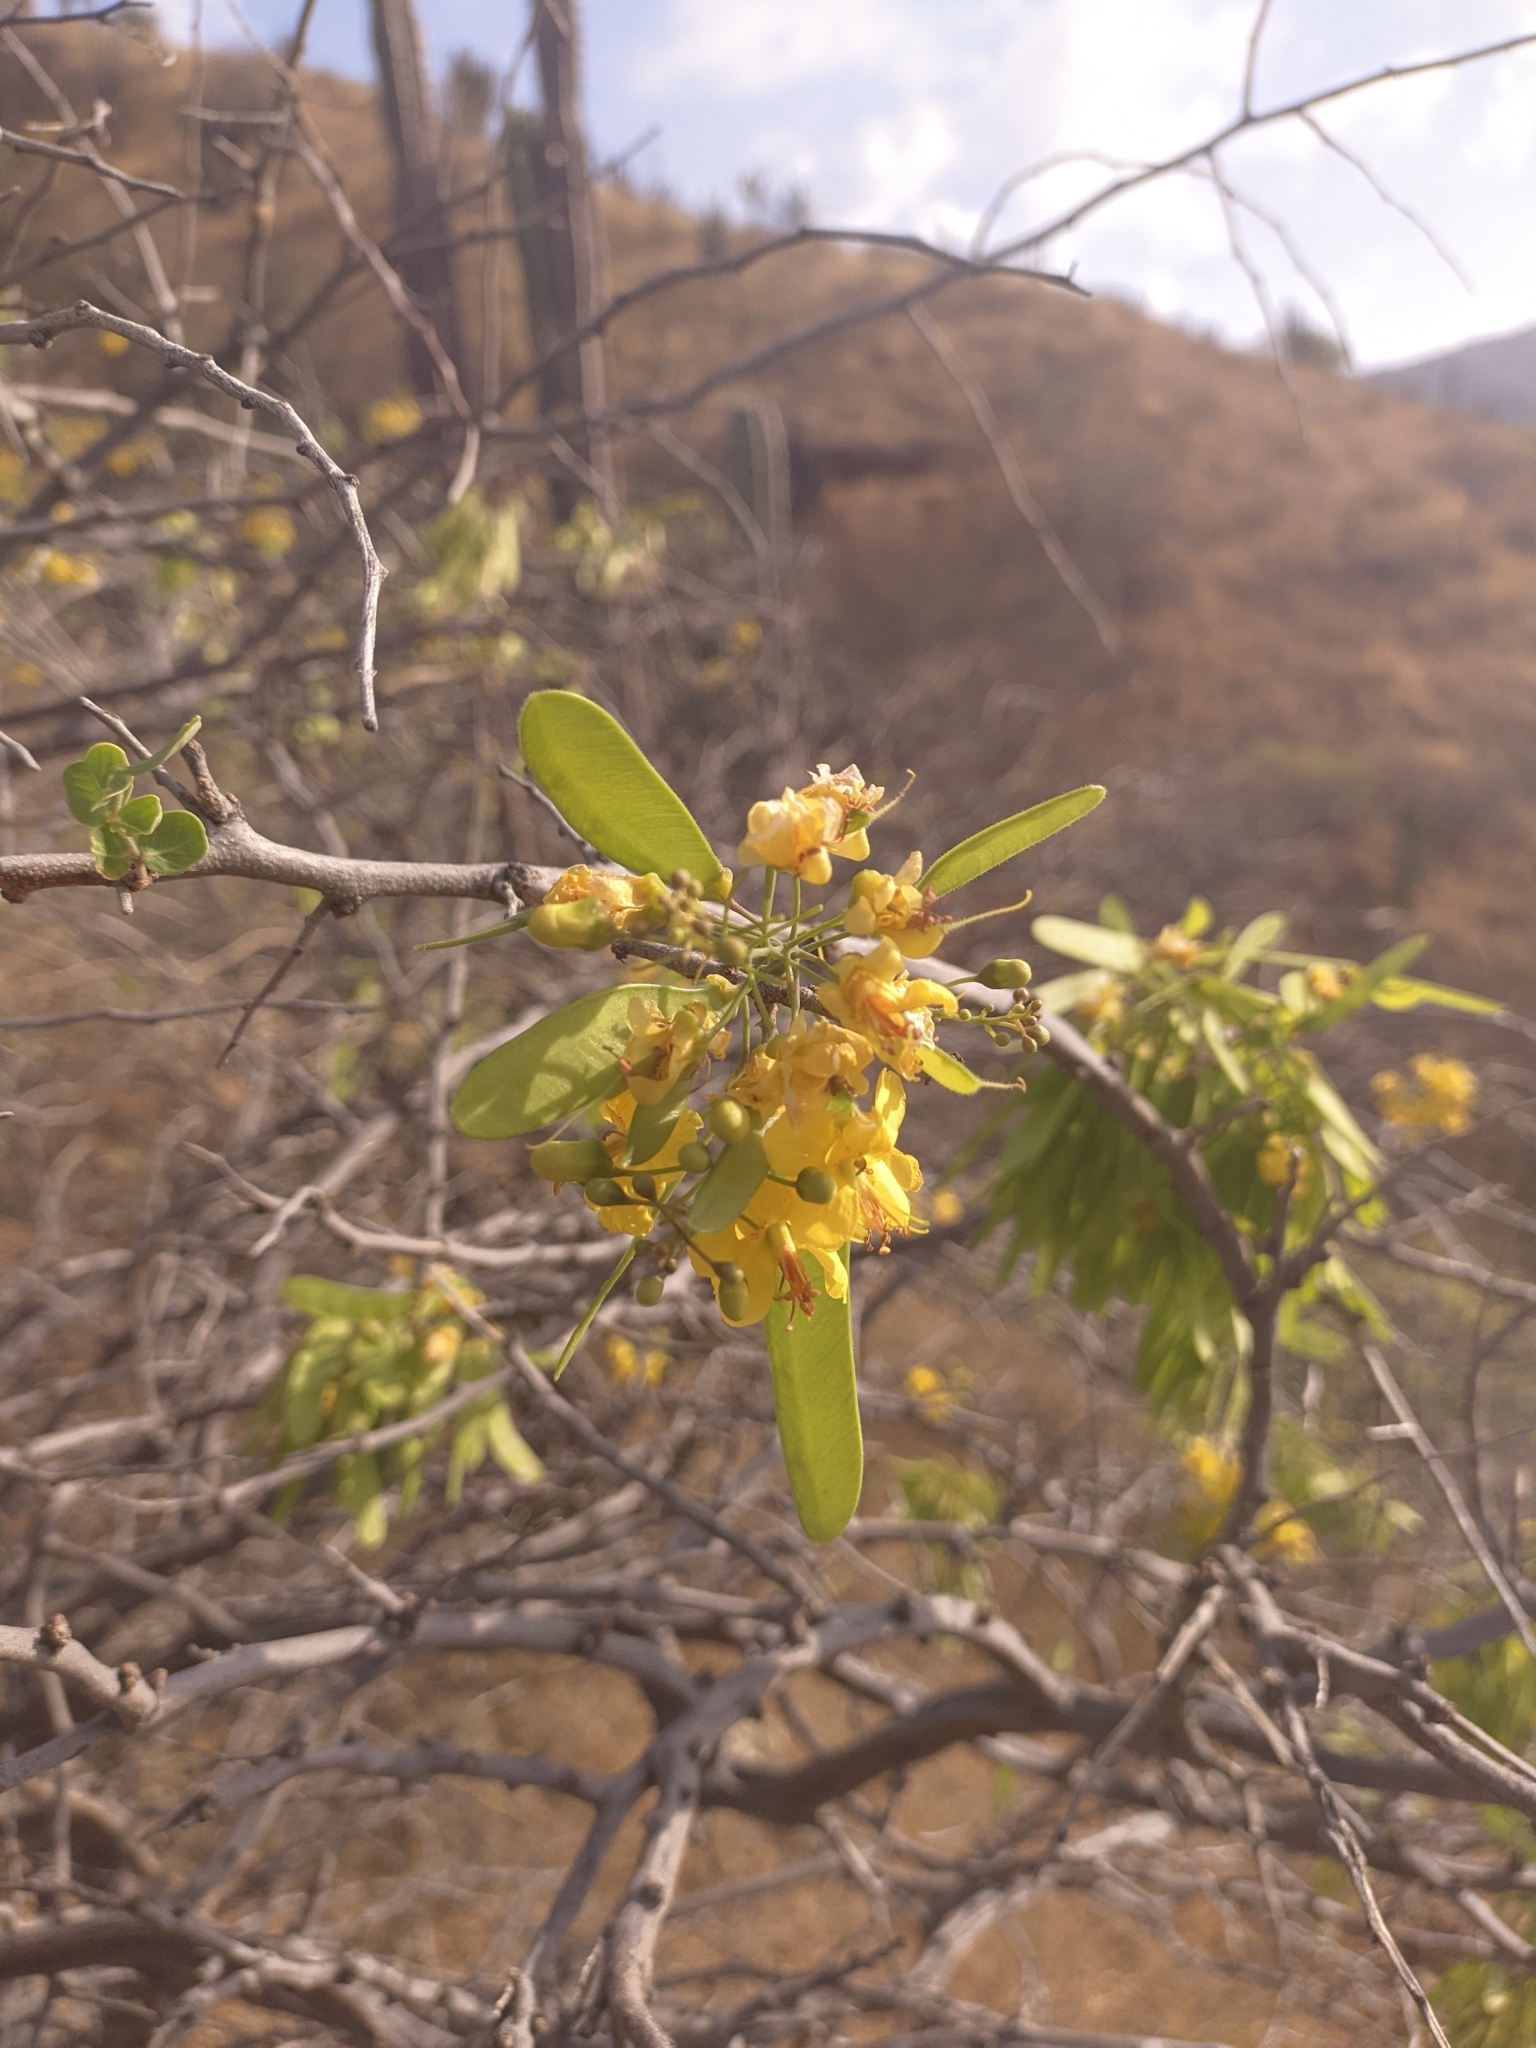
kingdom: Plantae
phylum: Tracheophyta
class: Magnoliopsida
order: Fabales
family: Fabaceae
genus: Haematoxylum
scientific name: Haematoxylum brasiletto
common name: Peachwood
